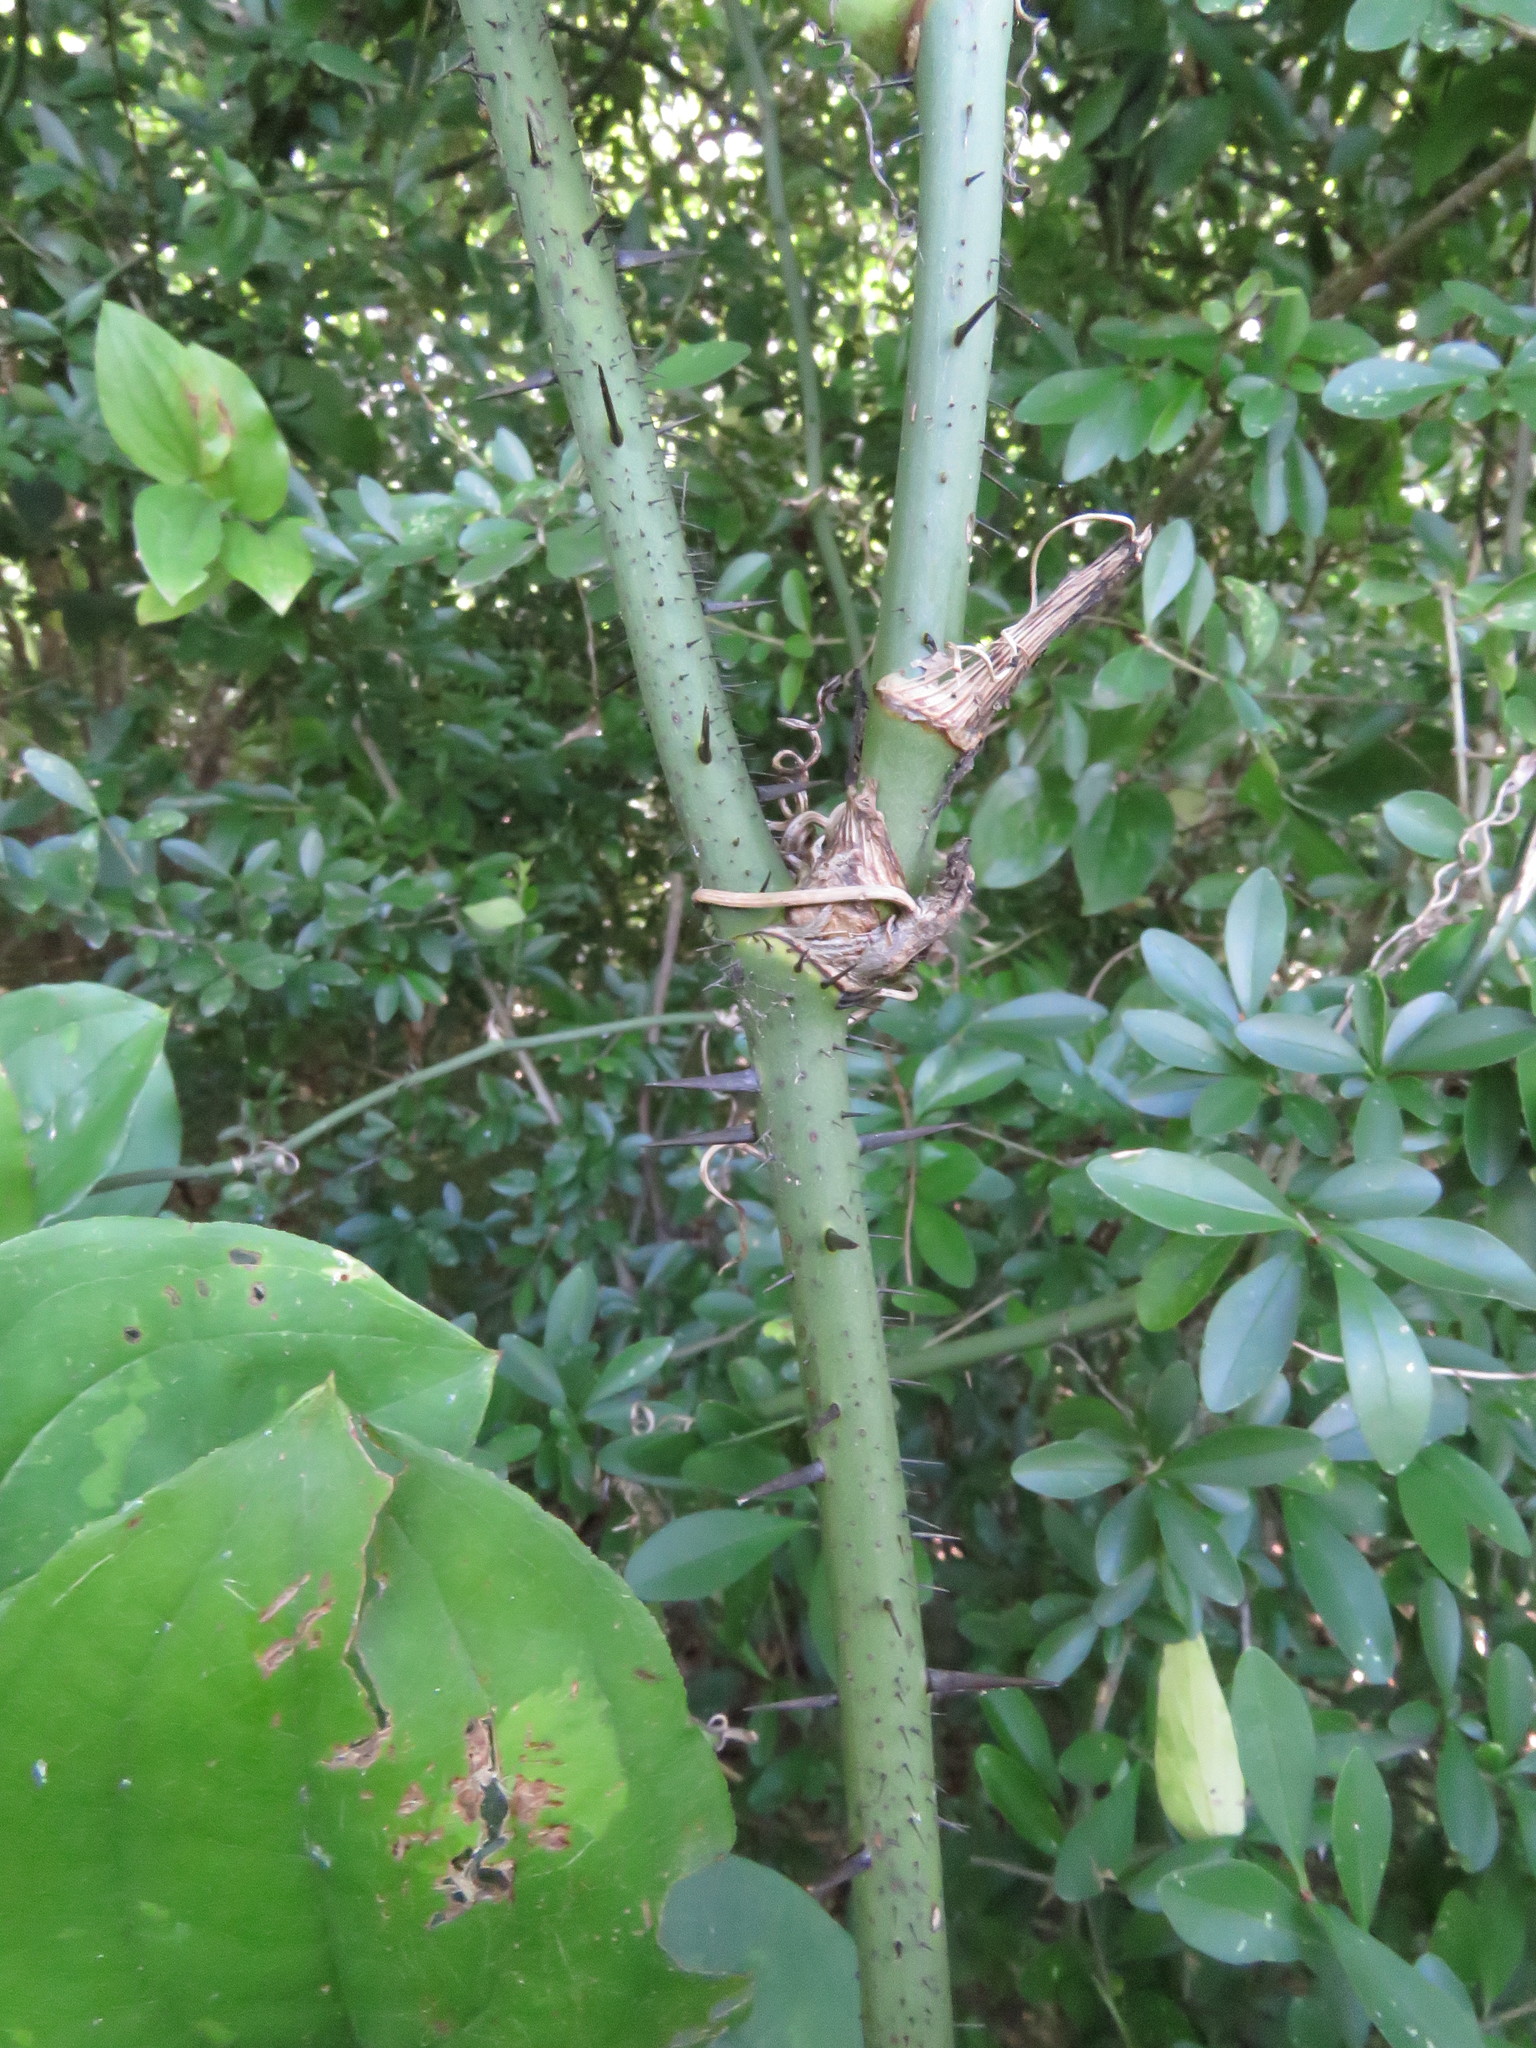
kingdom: Plantae
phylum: Tracheophyta
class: Liliopsida
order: Liliales
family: Smilacaceae
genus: Smilax
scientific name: Smilax tamnoides
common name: Hellfetter
